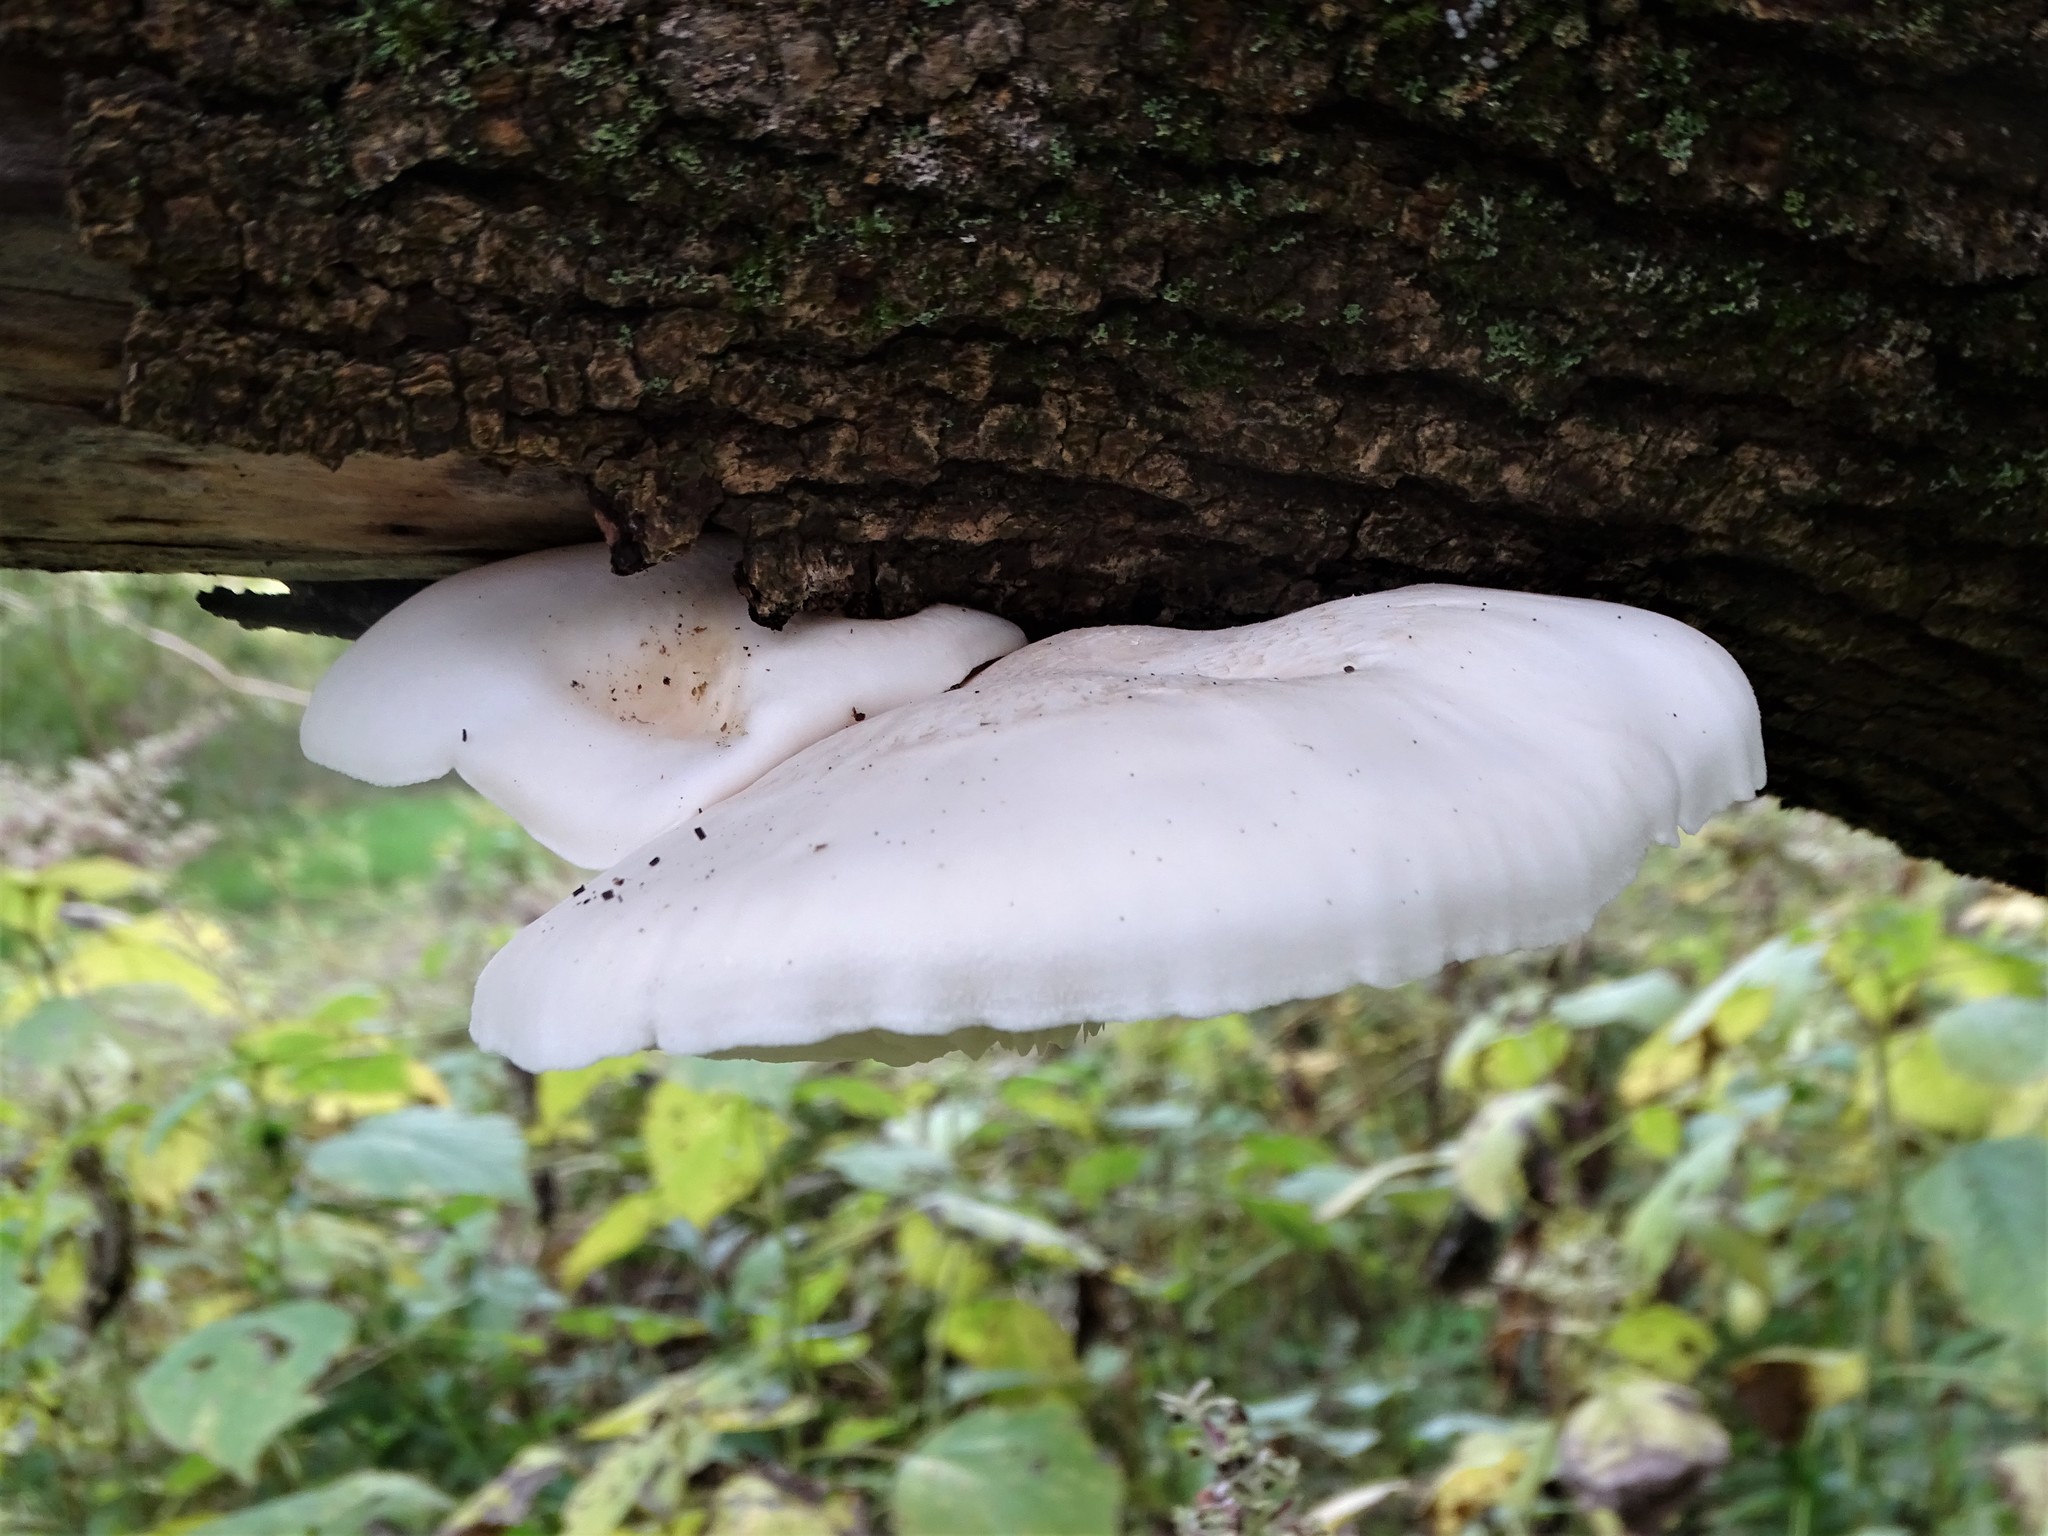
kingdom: Fungi
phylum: Basidiomycota
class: Agaricomycetes
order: Agaricales
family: Lyophyllaceae
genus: Hypsizygus
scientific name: Hypsizygus ulmarius
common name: Elm leech
